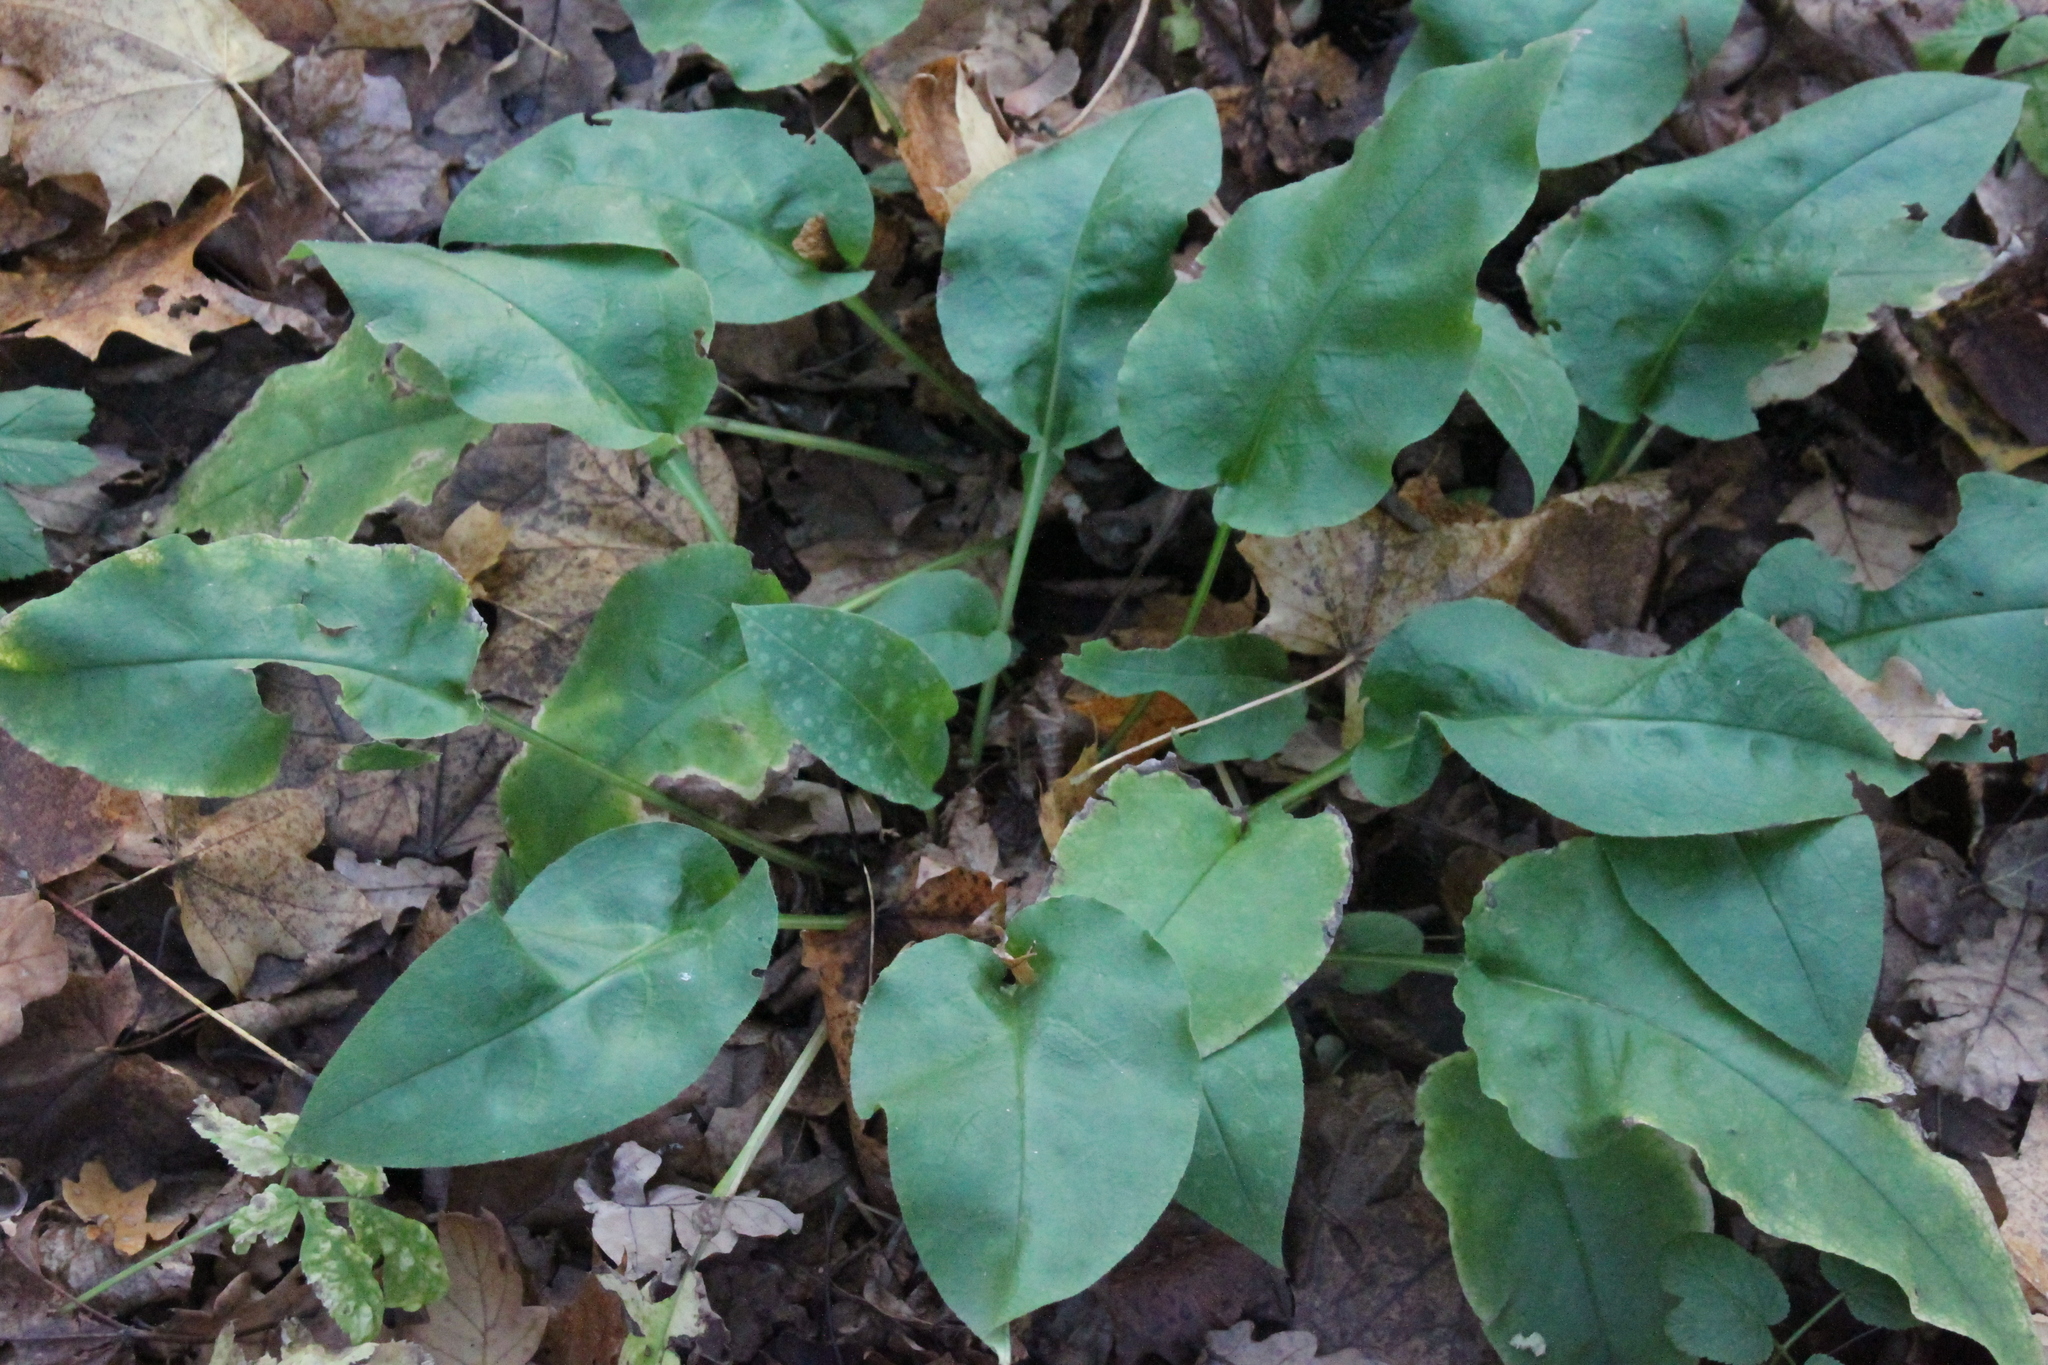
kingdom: Plantae
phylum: Tracheophyta
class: Magnoliopsida
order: Boraginales
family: Boraginaceae
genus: Pulmonaria
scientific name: Pulmonaria obscura
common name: Suffolk lungwort
